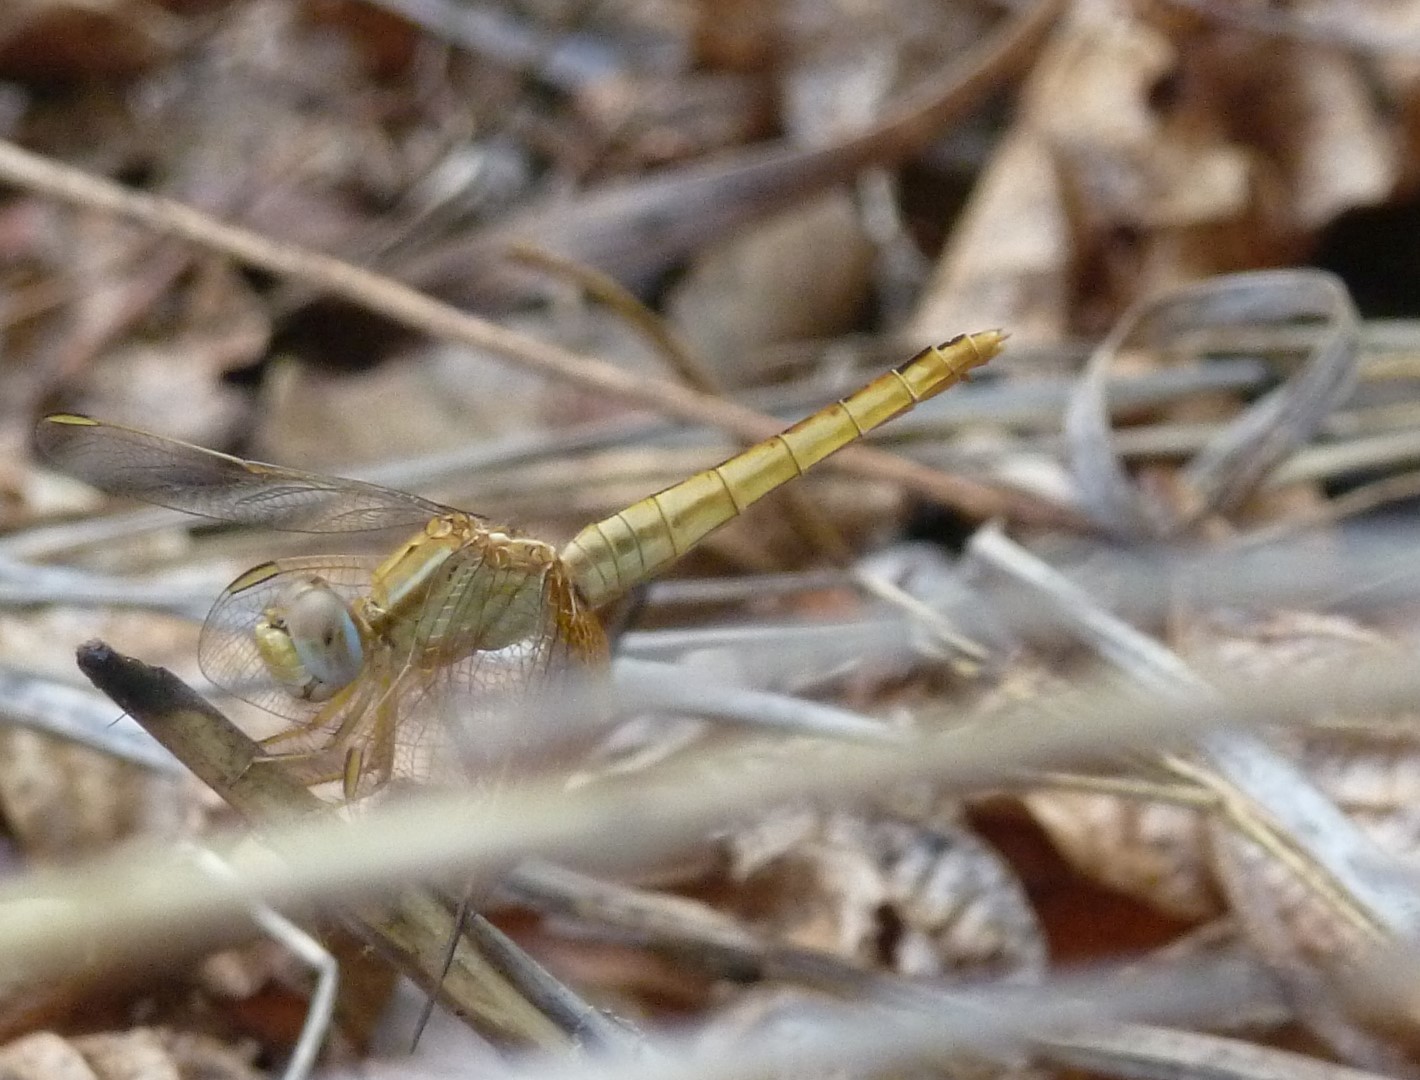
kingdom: Animalia
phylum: Arthropoda
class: Insecta
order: Odonata
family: Libellulidae
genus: Crocothemis
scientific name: Crocothemis erythraea
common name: Scarlet dragonfly
